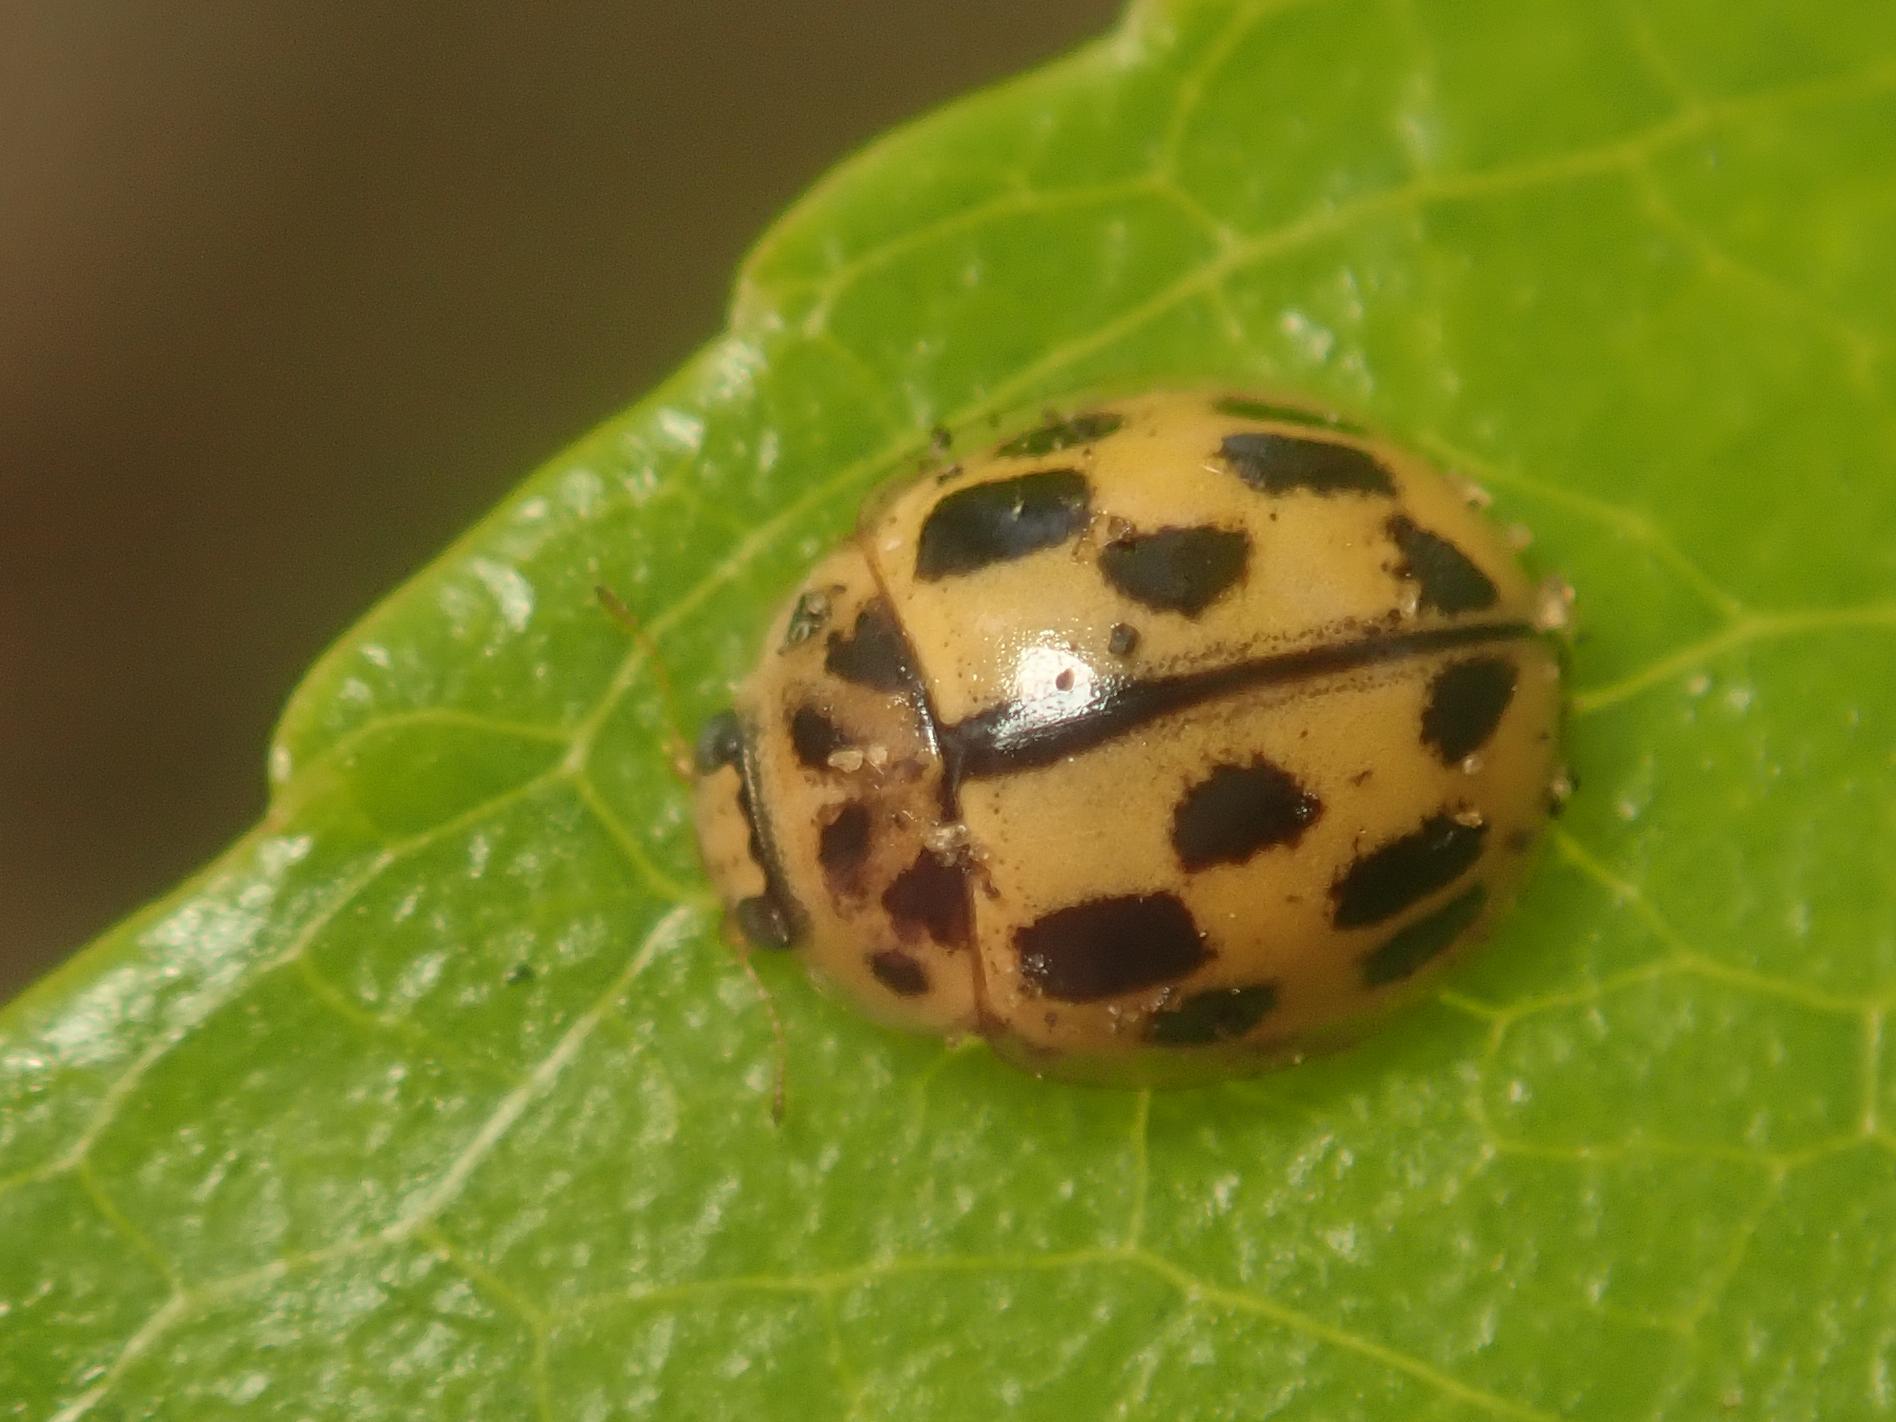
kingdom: Animalia
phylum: Arthropoda
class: Insecta
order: Coleoptera
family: Coccinellidae
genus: Propylaea
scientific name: Propylaea quatuordecimpunctata
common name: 14-spotted ladybird beetle
